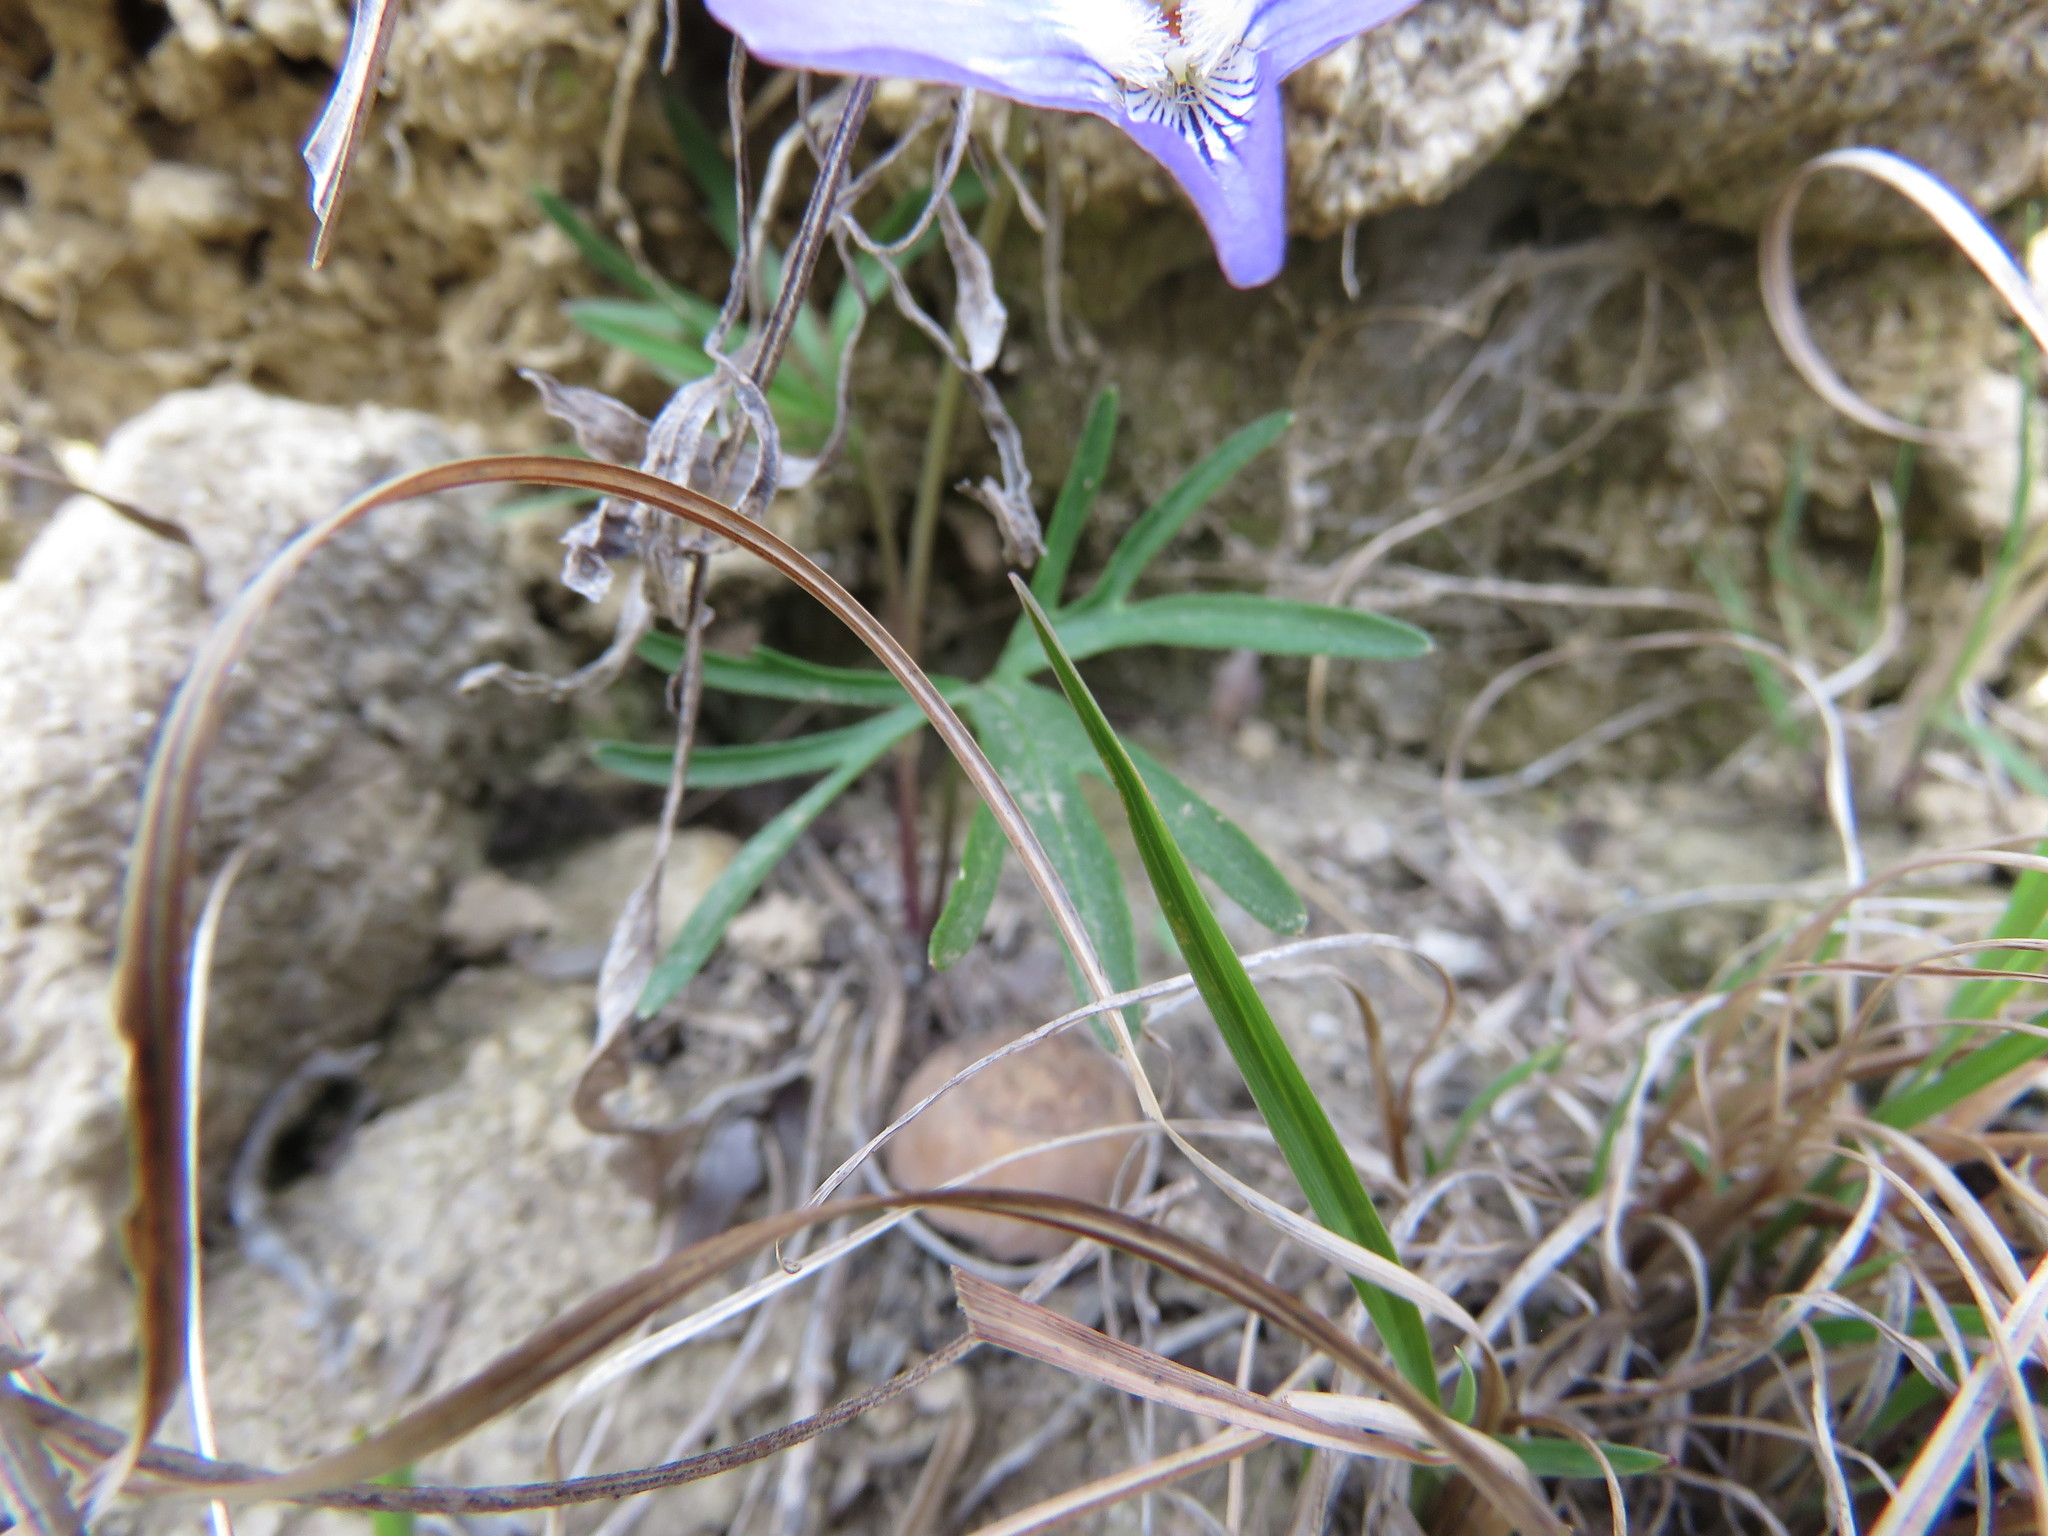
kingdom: Plantae
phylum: Tracheophyta
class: Magnoliopsida
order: Malpighiales
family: Violaceae
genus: Viola
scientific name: Viola pedata
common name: Pansy violet
